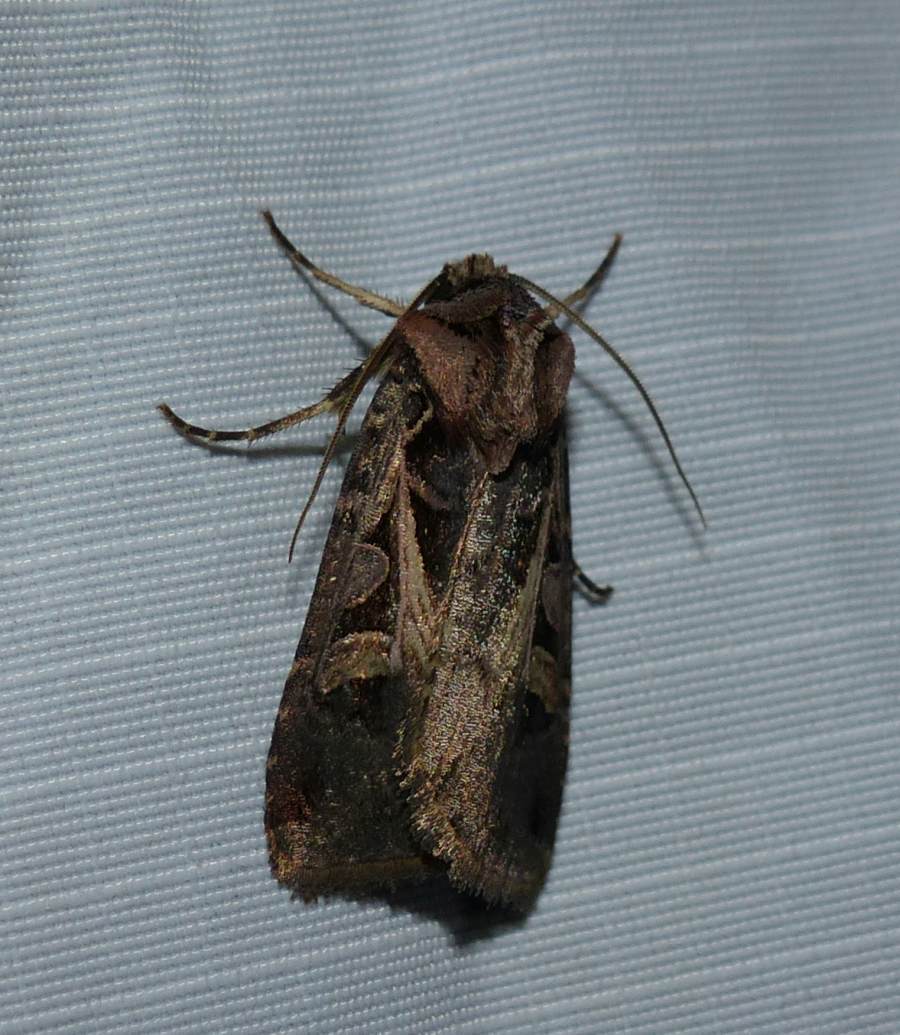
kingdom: Animalia
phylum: Arthropoda
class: Insecta
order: Lepidoptera
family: Noctuidae
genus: Feltia
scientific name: Feltia herilis
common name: Master's dart
